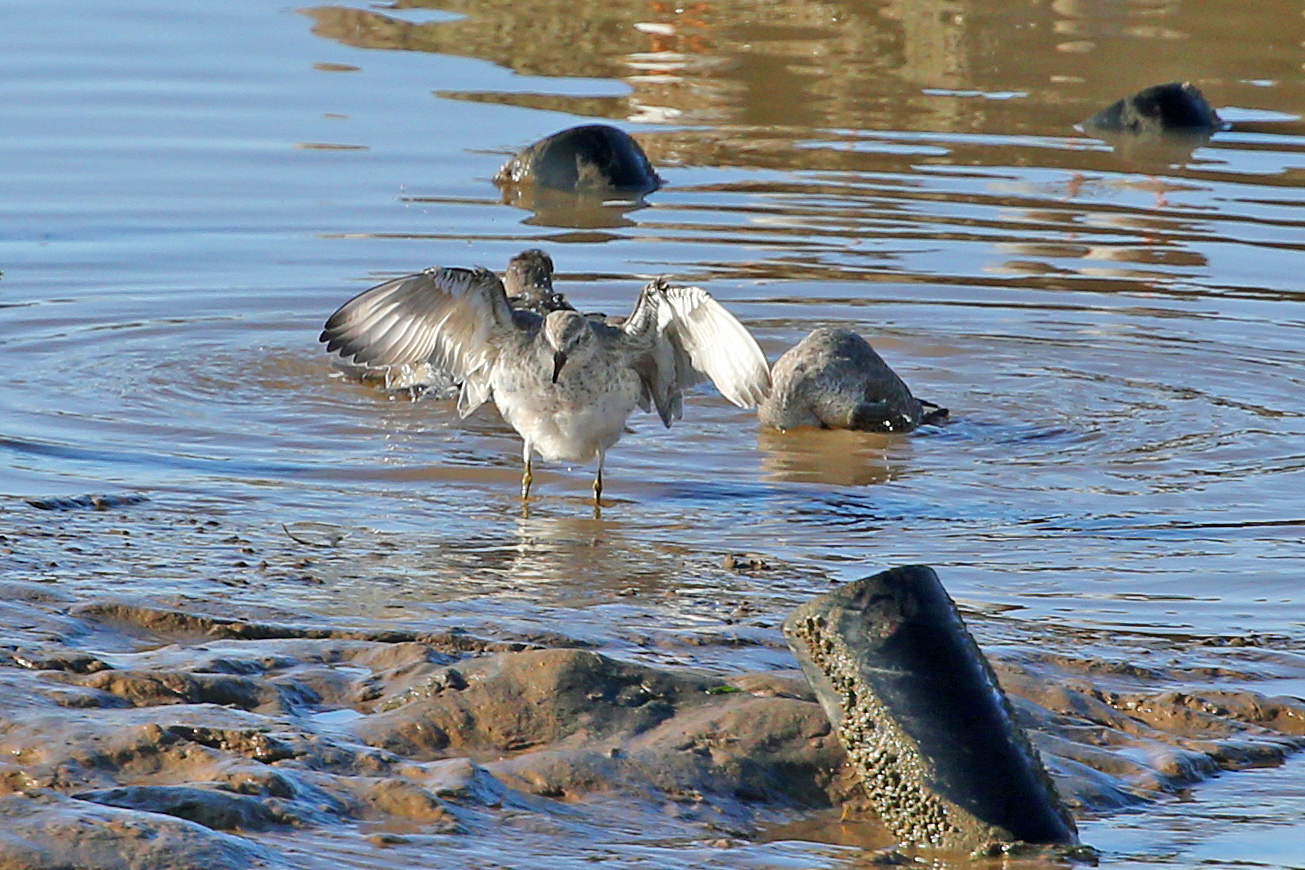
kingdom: Animalia
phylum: Chordata
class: Aves
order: Charadriiformes
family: Scolopacidae
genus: Calidris
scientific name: Calidris canutus
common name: Red knot
